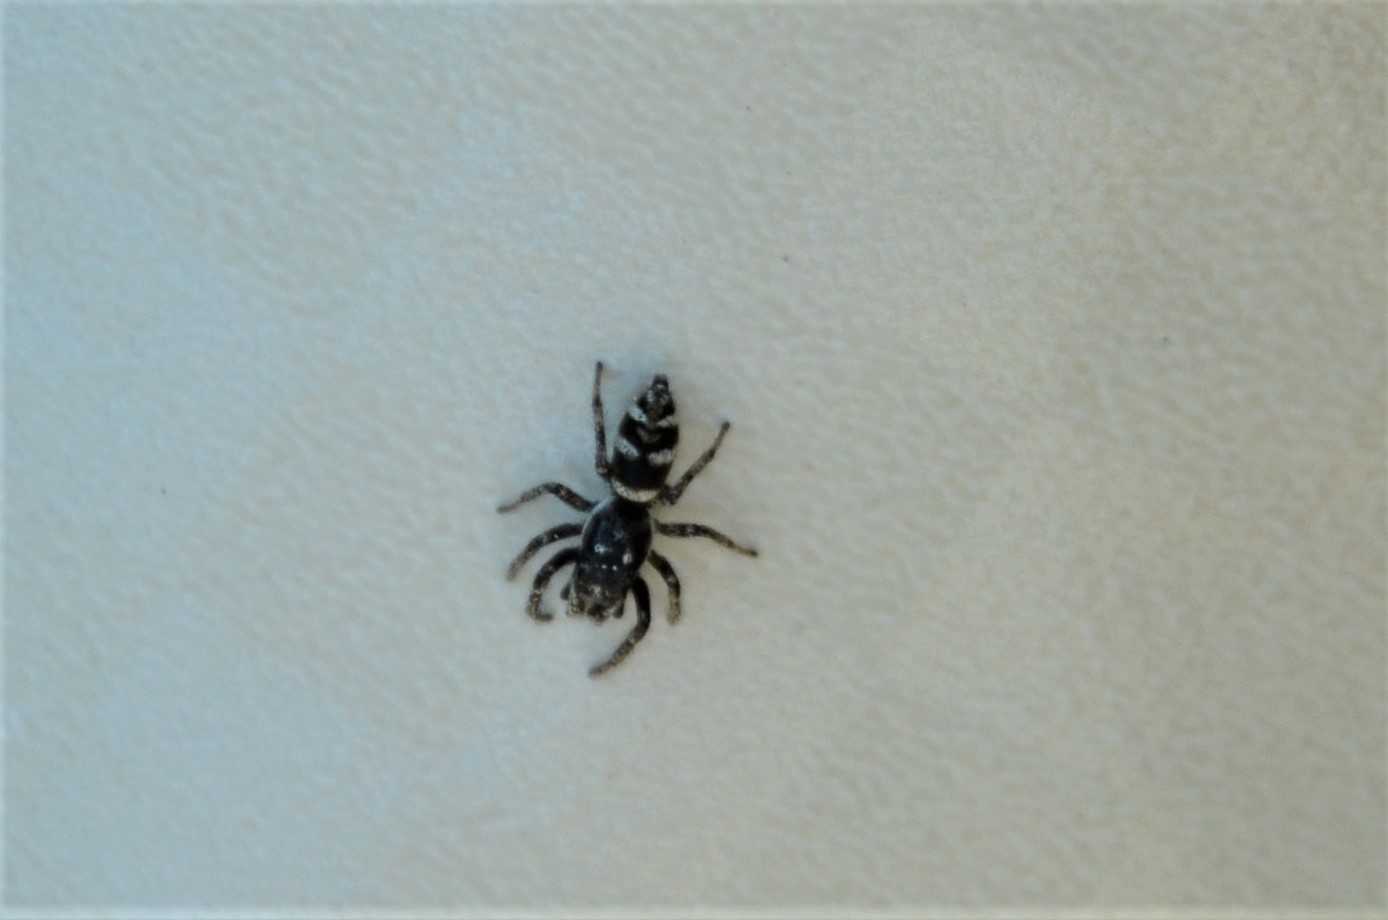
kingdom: Animalia
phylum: Arthropoda
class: Arachnida
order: Araneae
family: Salticidae
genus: Salticus
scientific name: Salticus scenicus
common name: Zebra jumper
